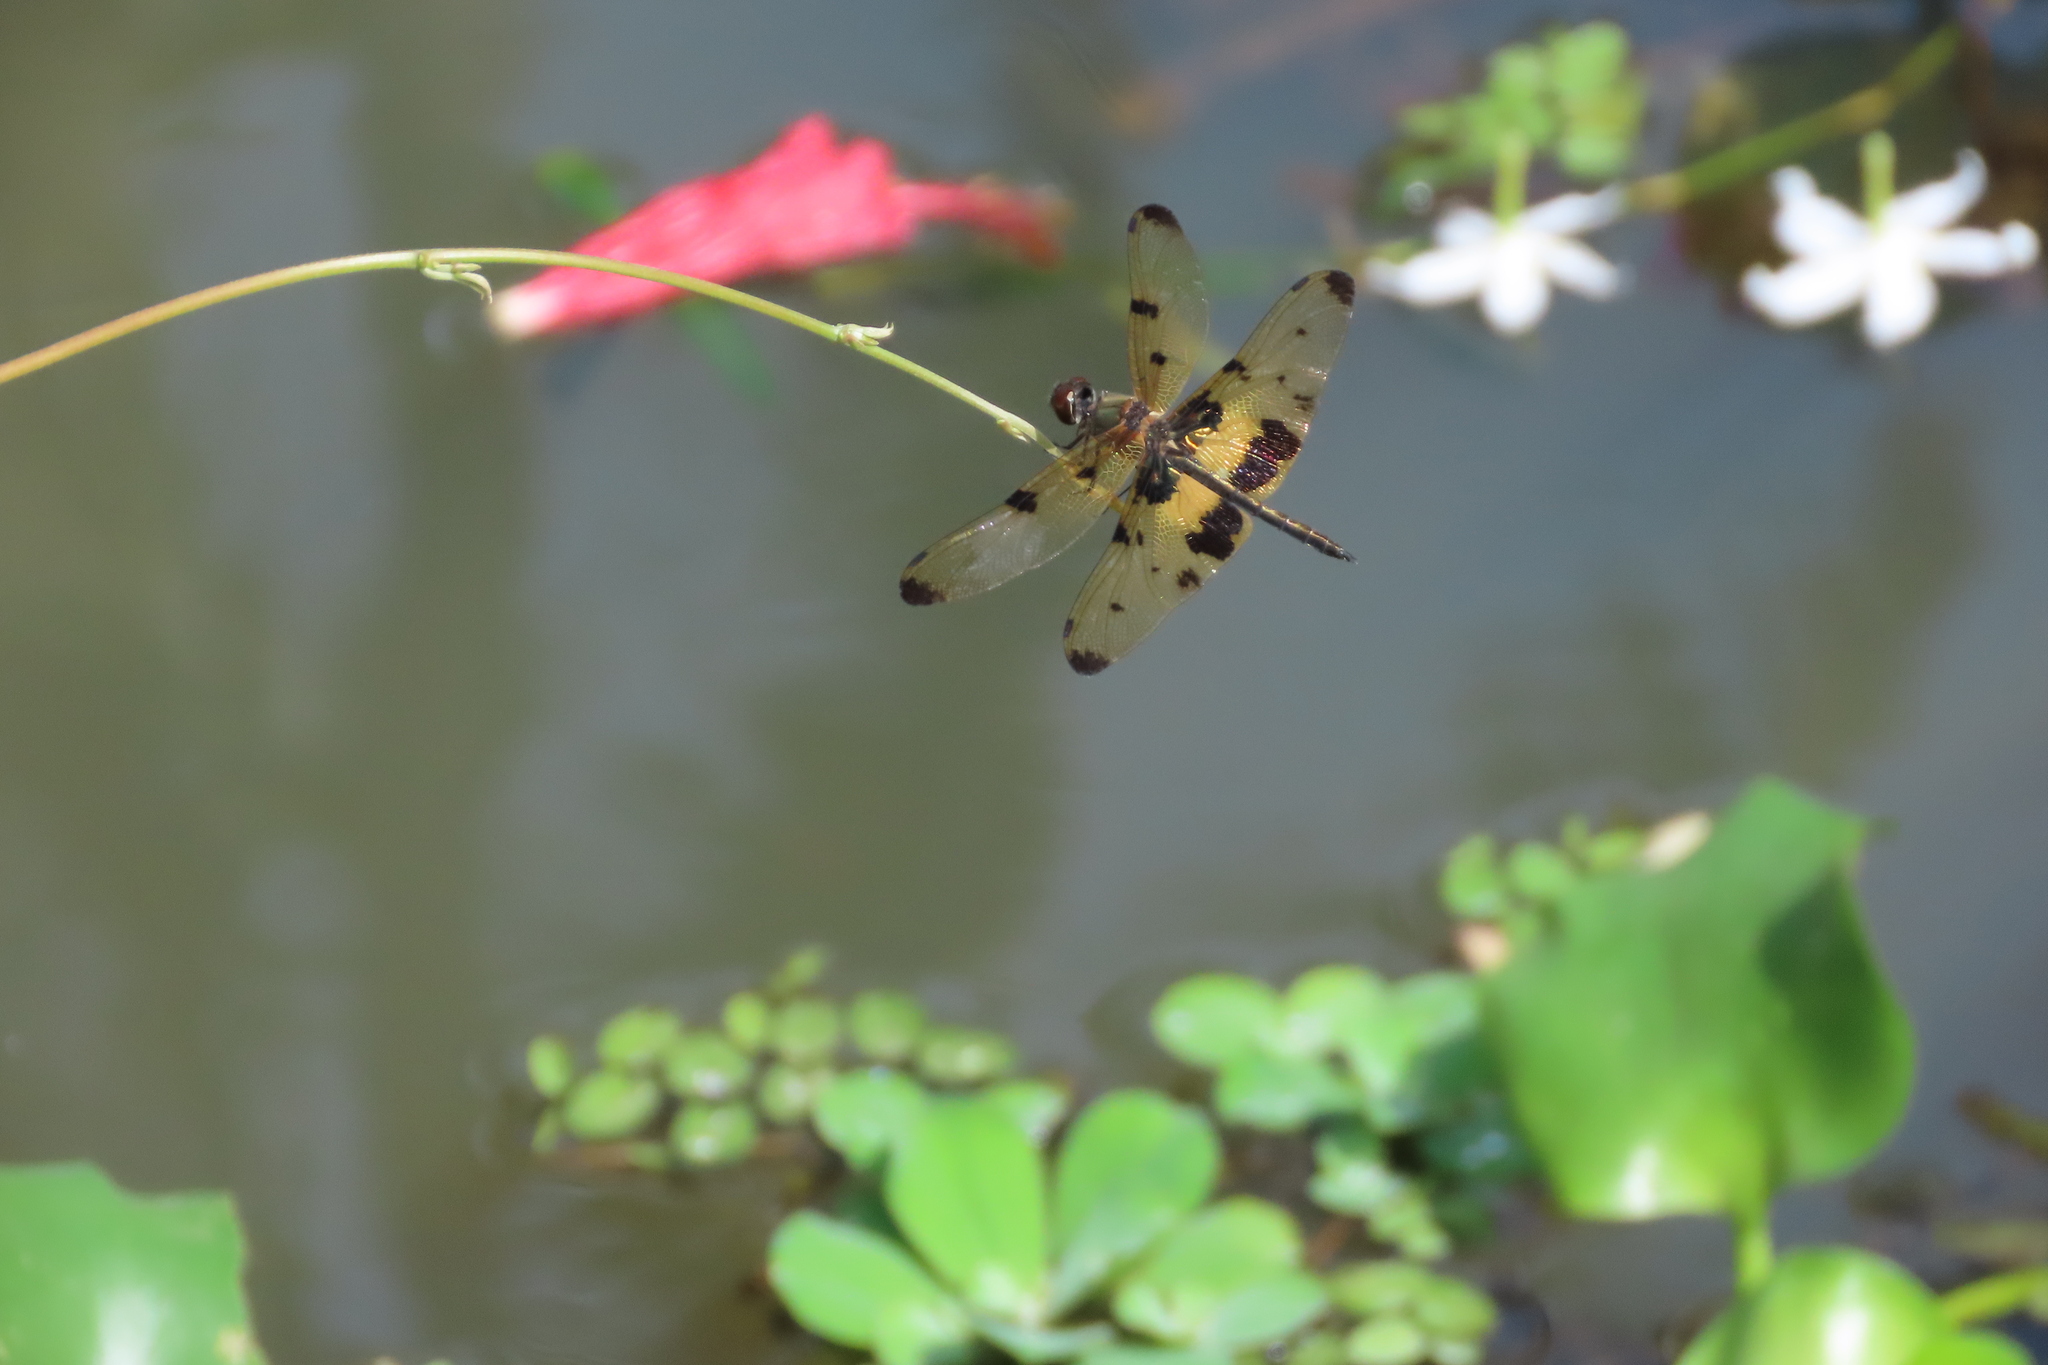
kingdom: Animalia
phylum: Arthropoda
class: Insecta
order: Odonata
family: Libellulidae
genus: Rhyothemis
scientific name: Rhyothemis variegata
